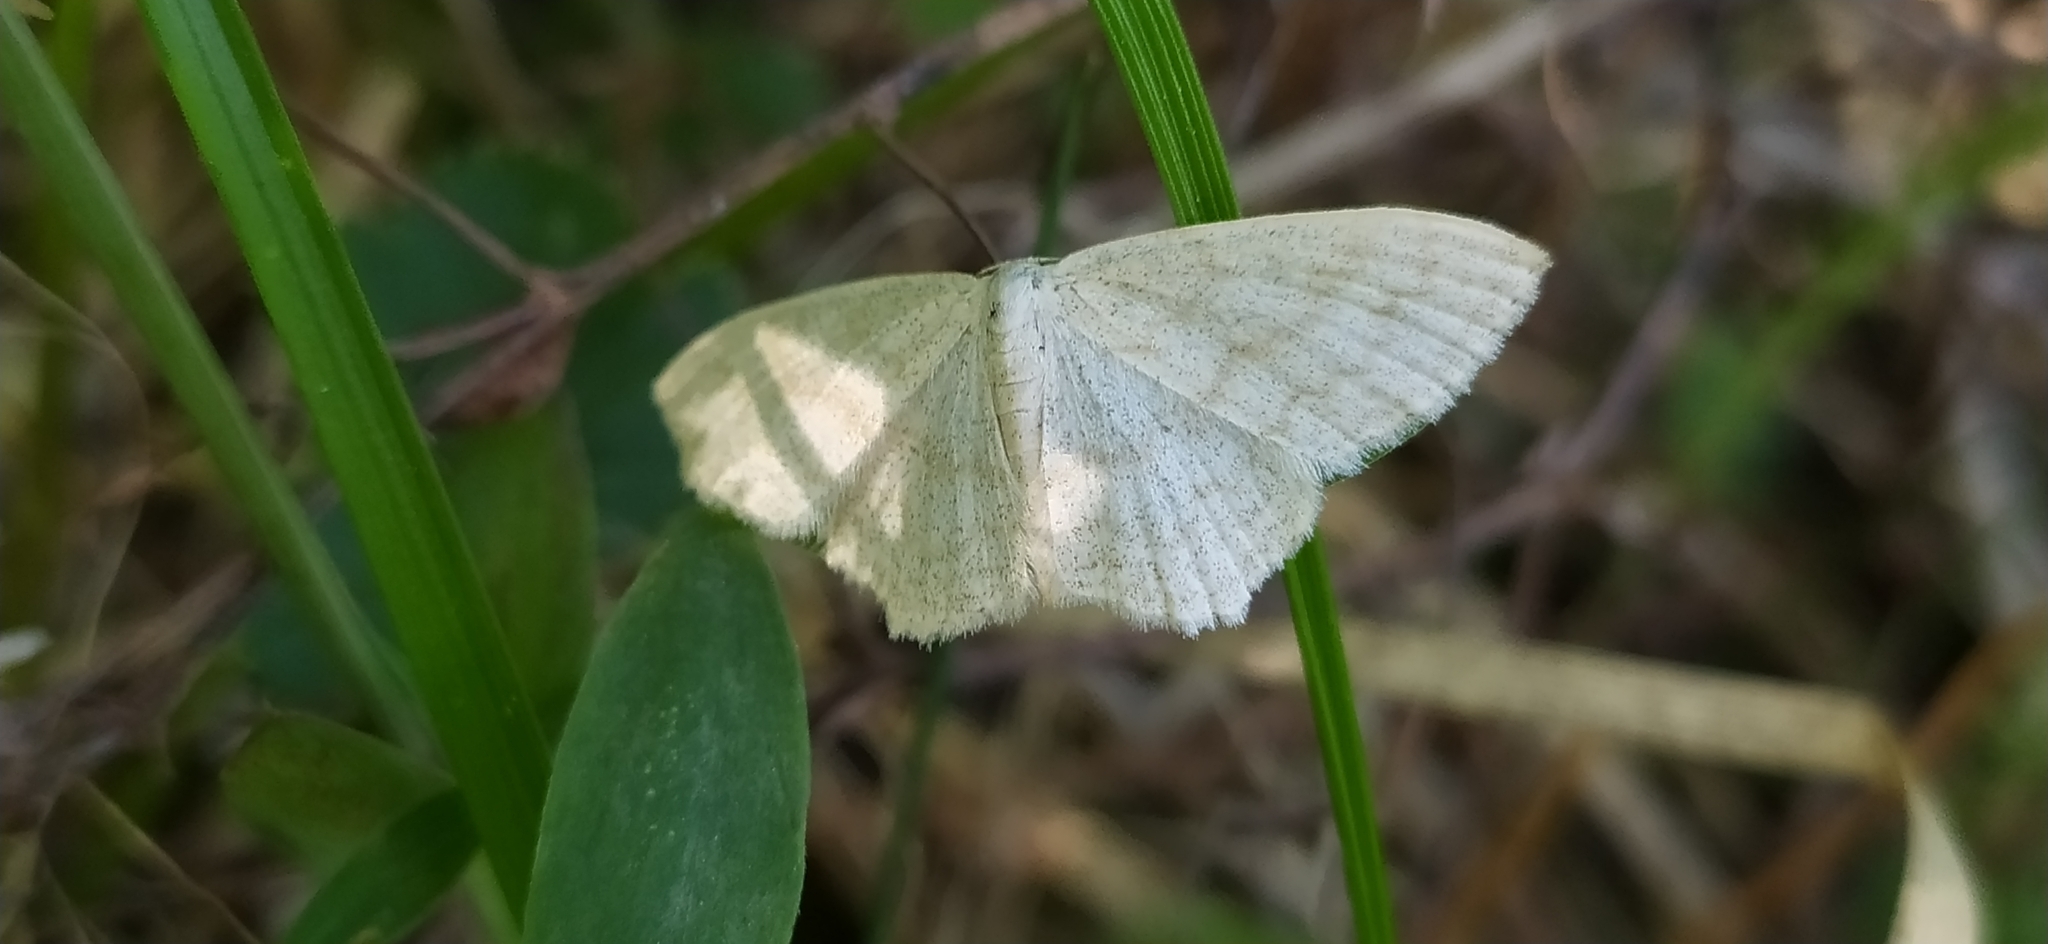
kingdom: Animalia
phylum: Arthropoda
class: Insecta
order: Lepidoptera
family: Geometridae
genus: Scopula
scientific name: Scopula floslactata
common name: Cream wave
